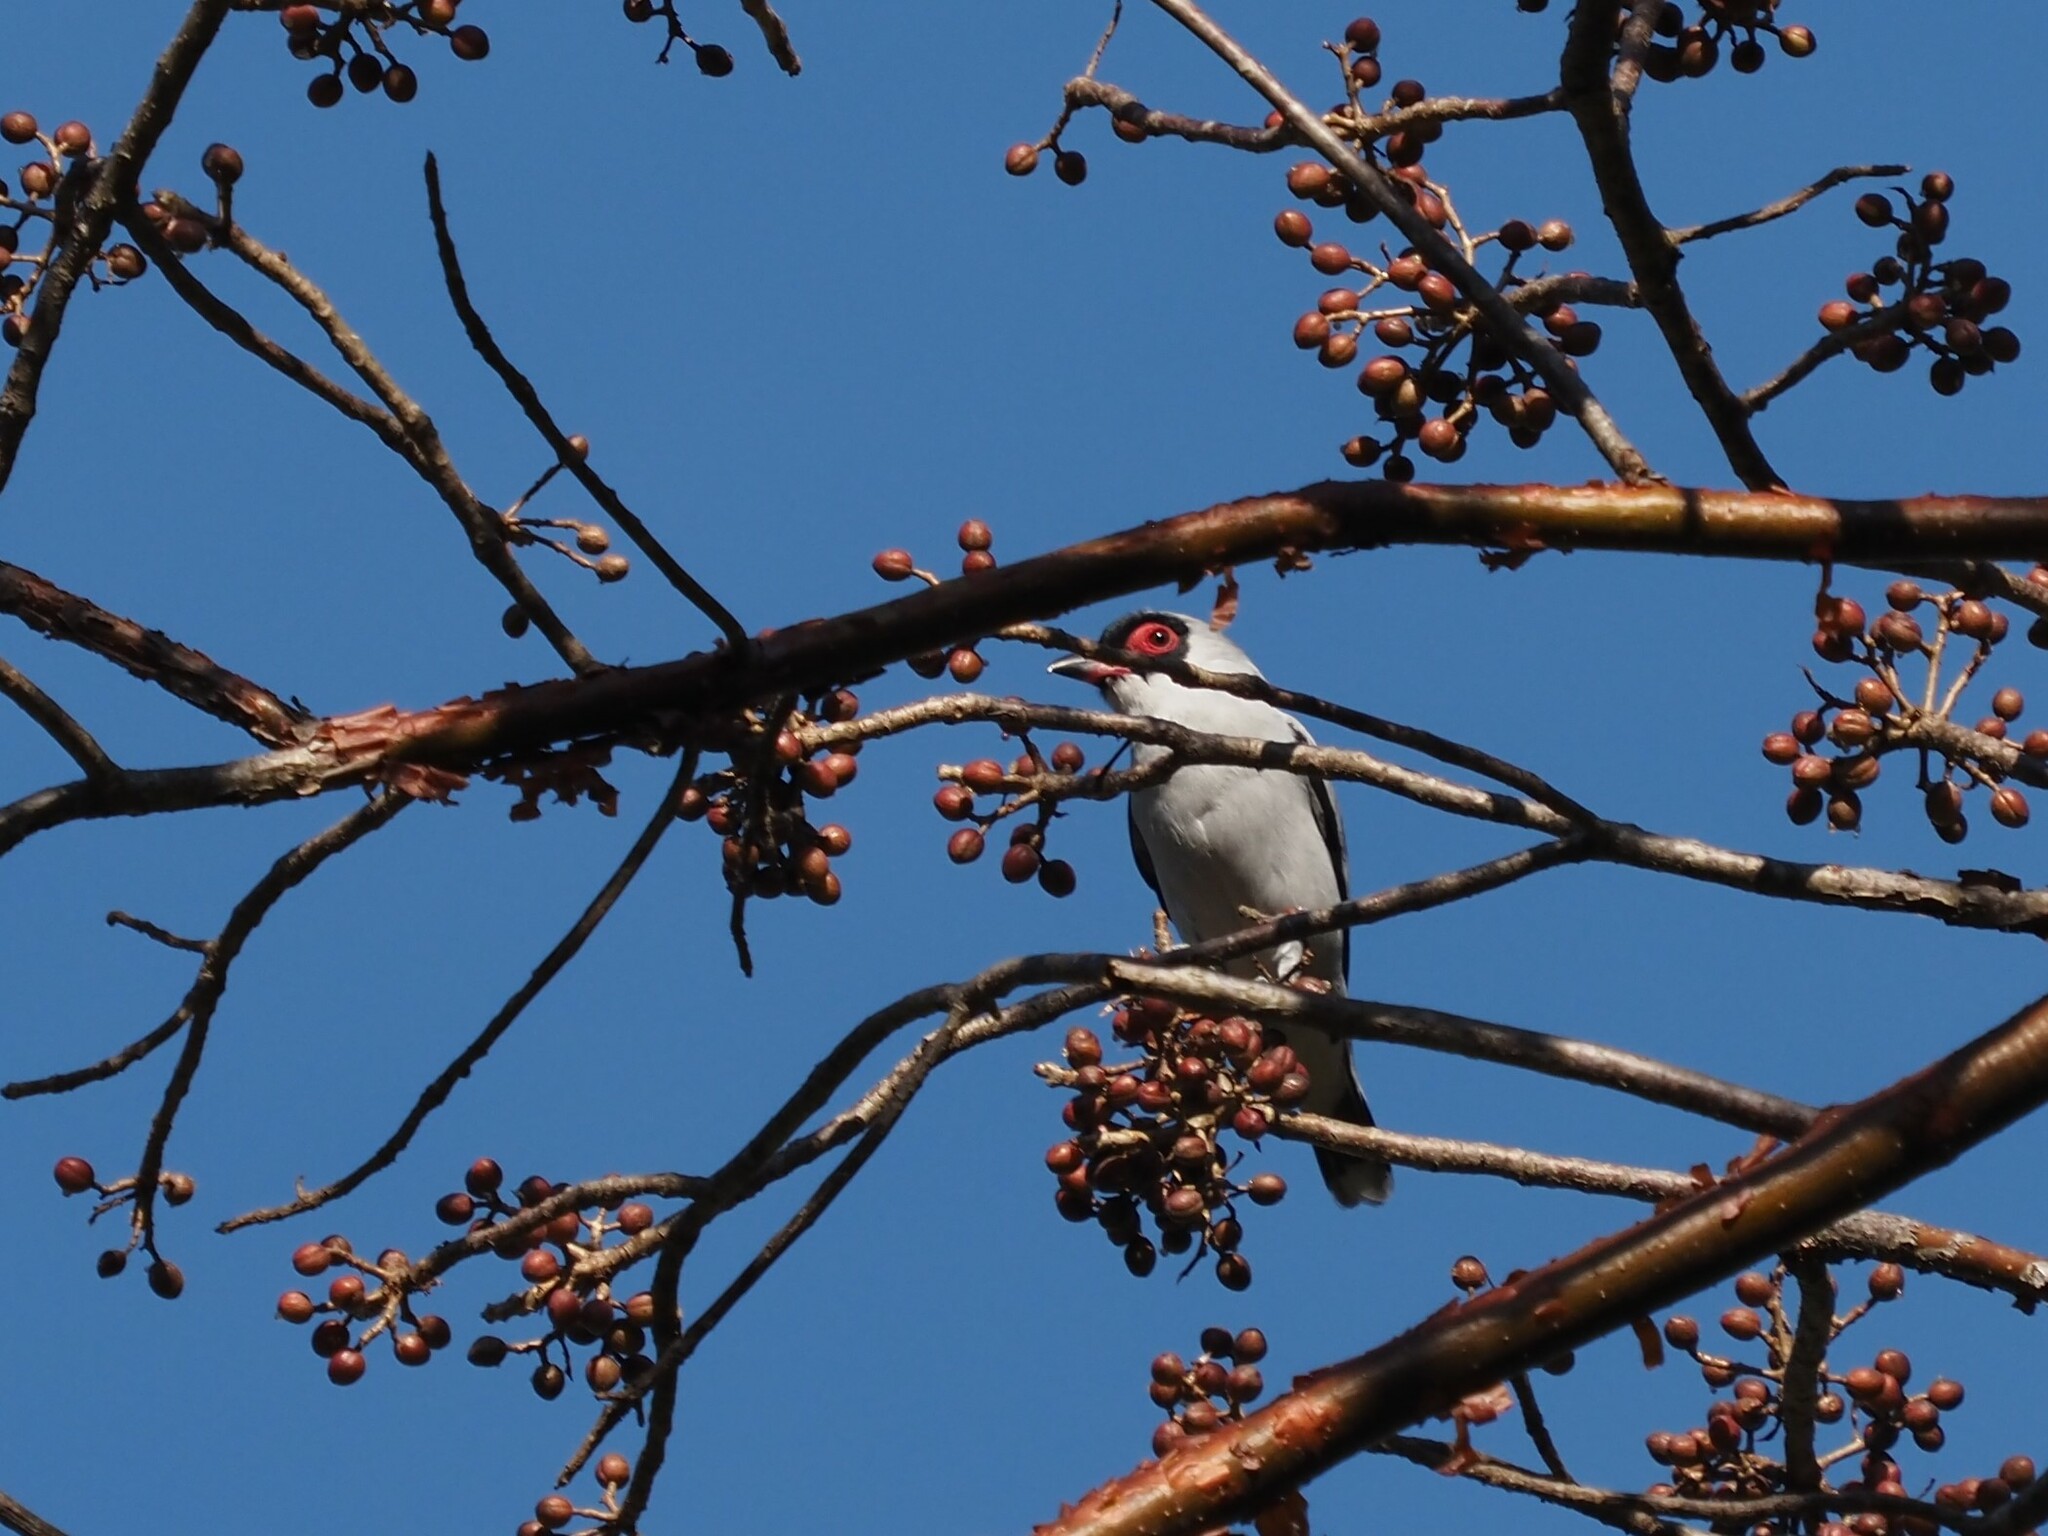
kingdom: Animalia
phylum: Chordata
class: Aves
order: Passeriformes
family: Cotingidae
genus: Tityra
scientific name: Tityra semifasciata
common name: Masked tityra
